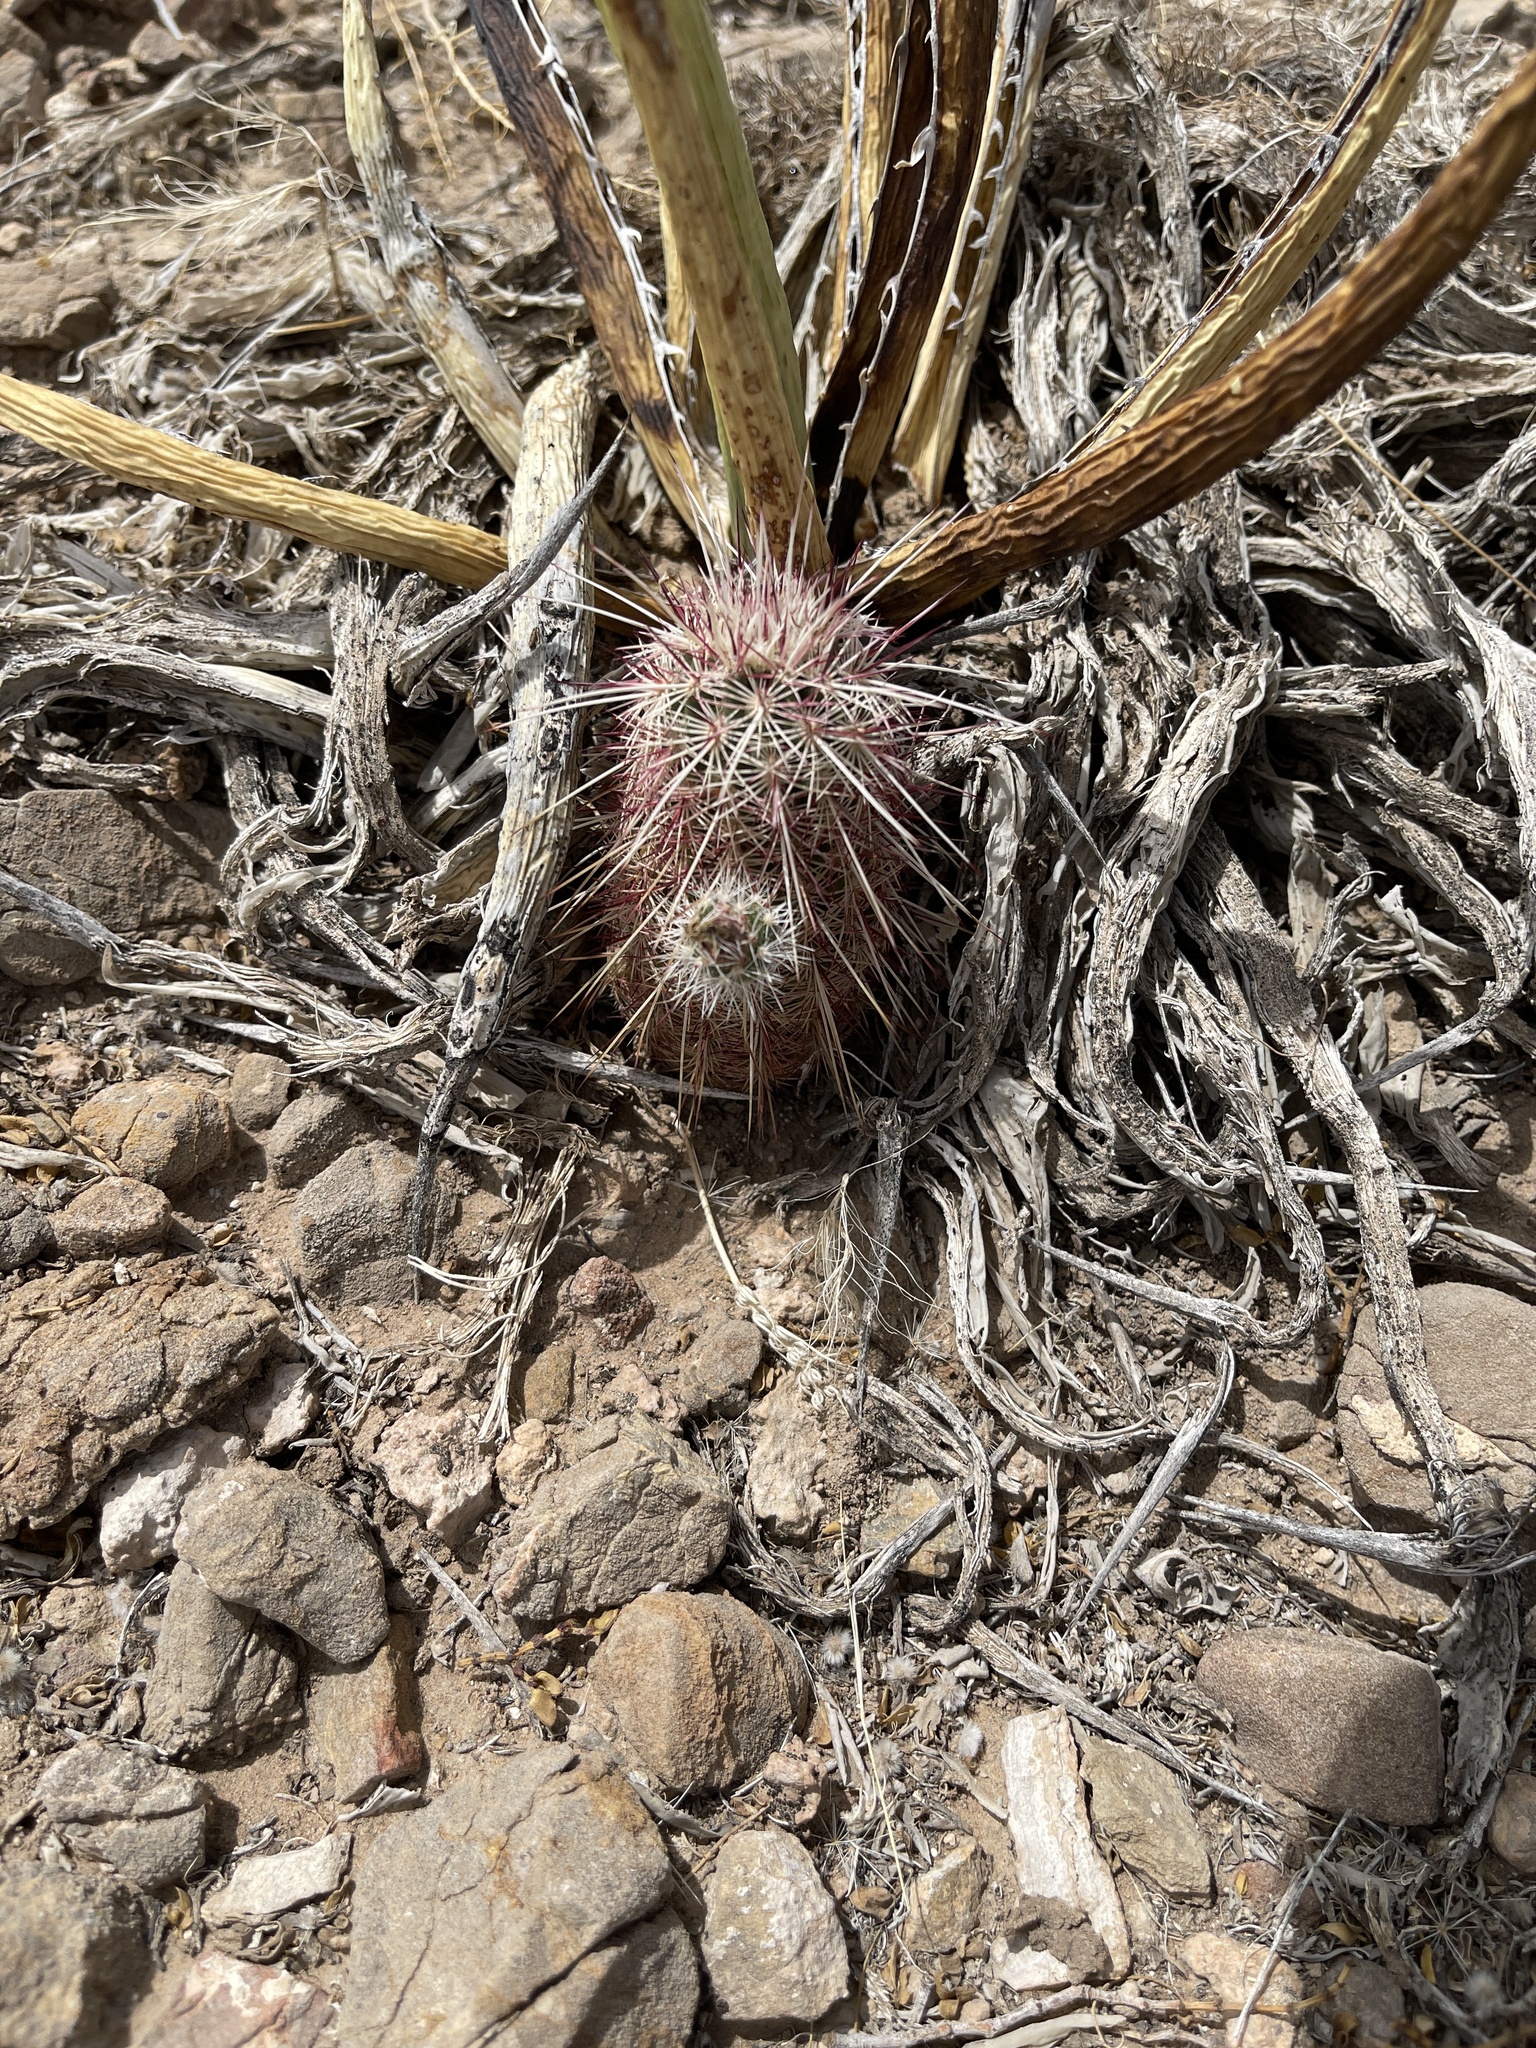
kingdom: Plantae
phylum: Tracheophyta
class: Magnoliopsida
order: Caryophyllales
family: Cactaceae
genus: Echinocereus
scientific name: Echinocereus viridiflorus
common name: Nylon hedgehog cactus
